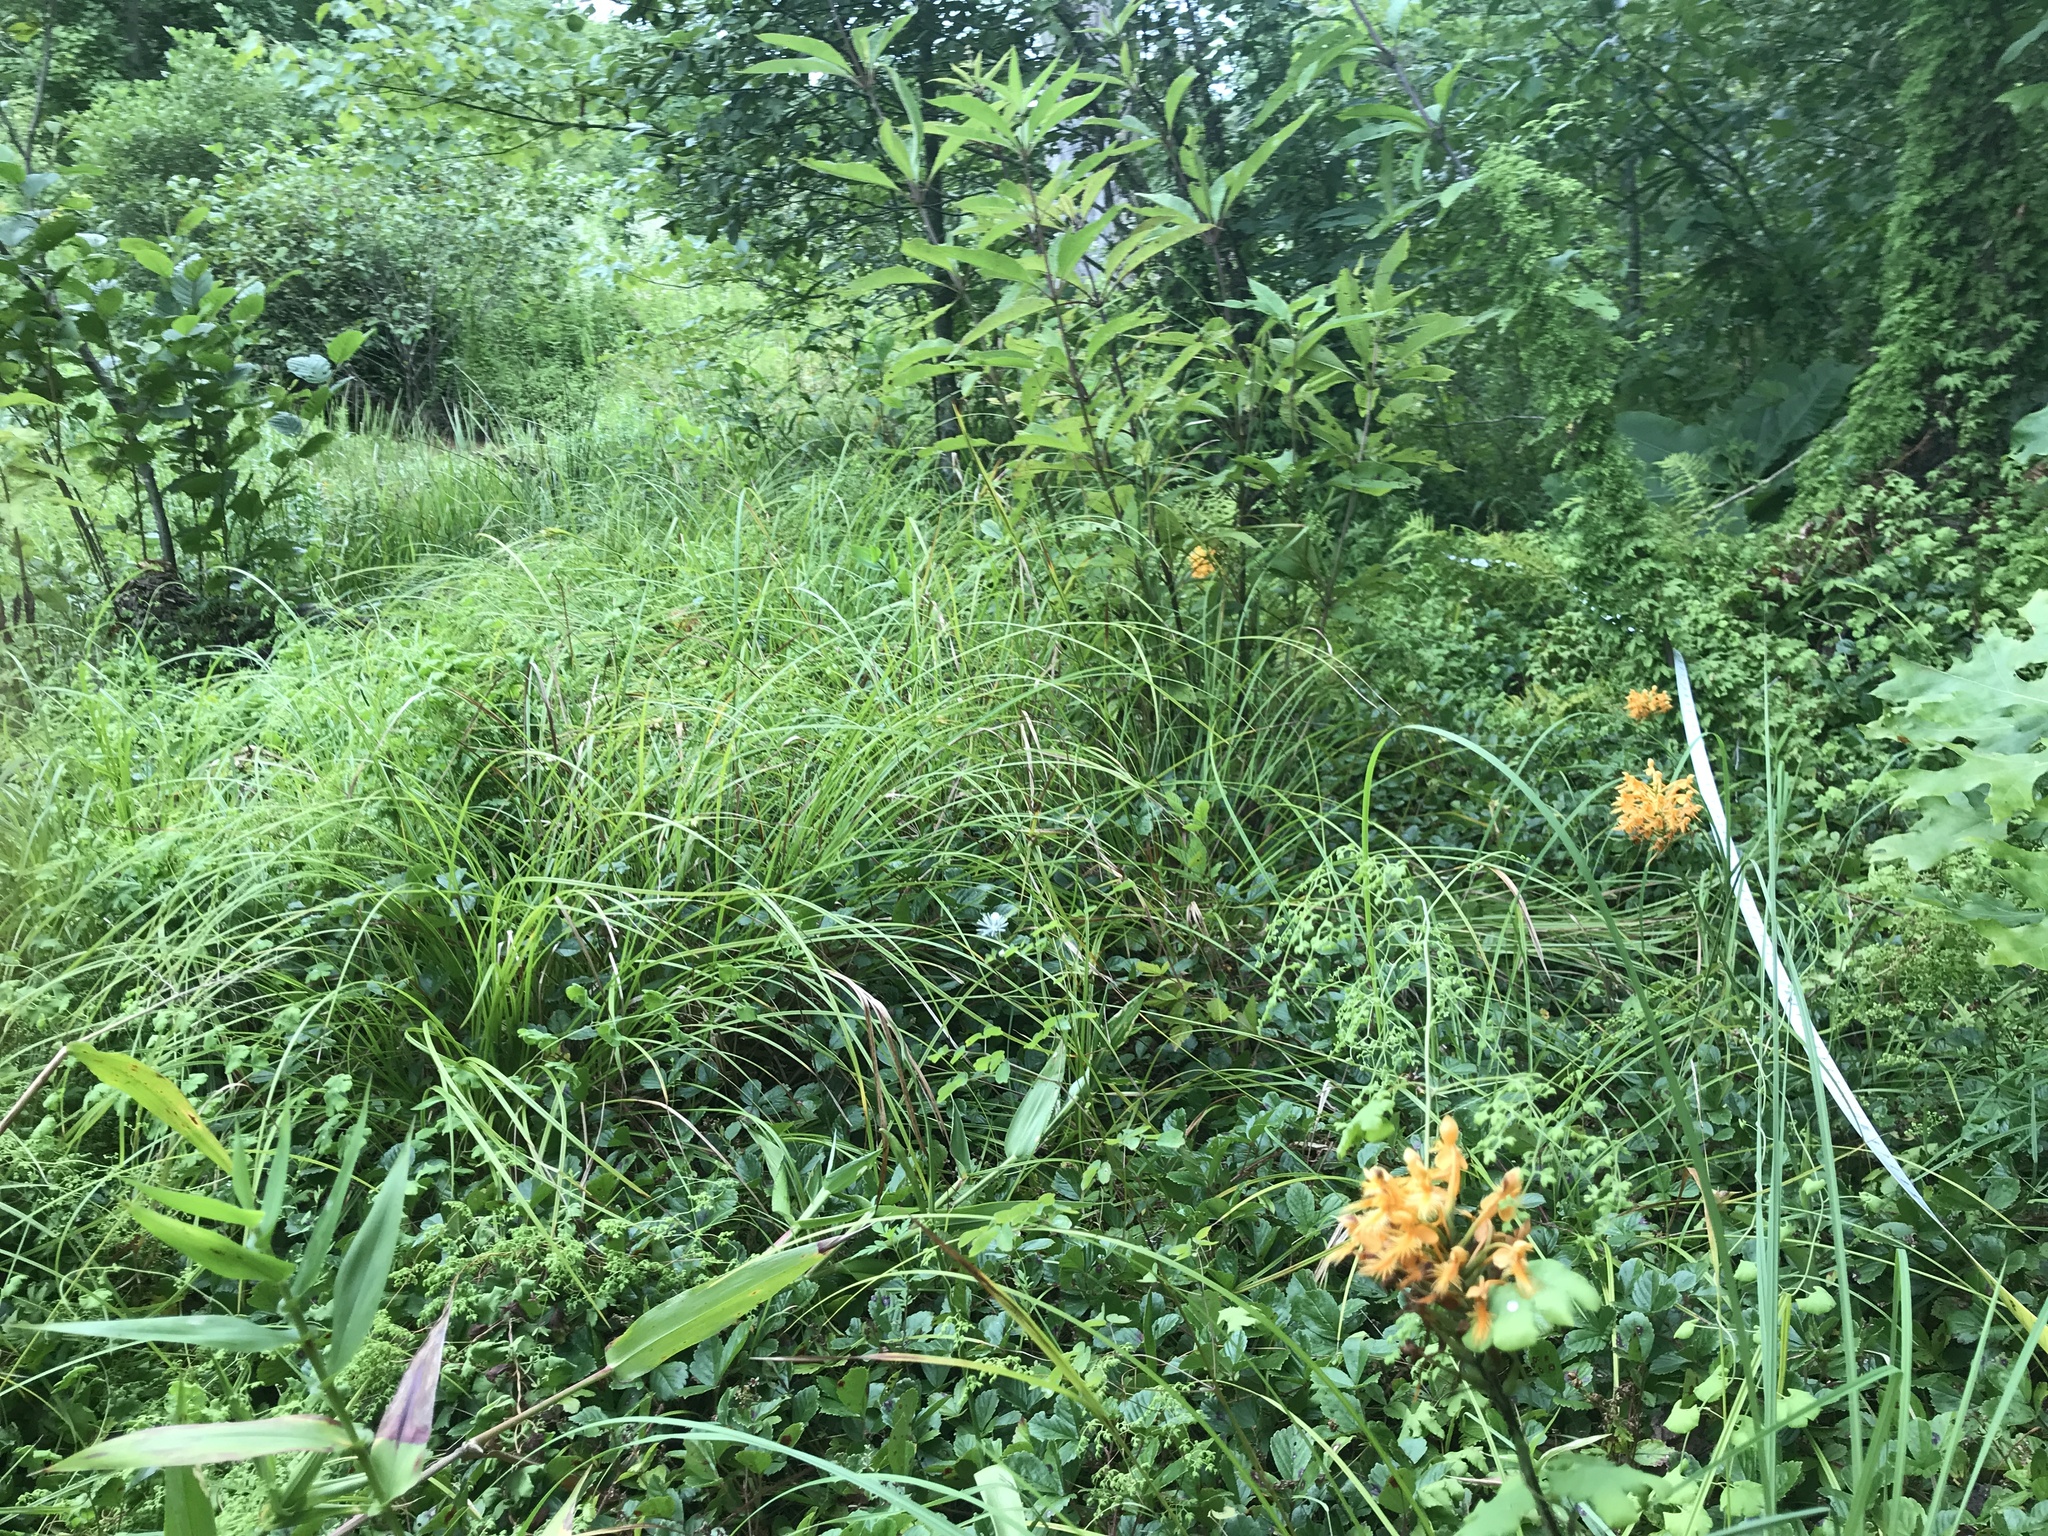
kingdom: Plantae
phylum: Tracheophyta
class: Liliopsida
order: Asparagales
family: Orchidaceae
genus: Platanthera
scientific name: Platanthera ciliaris
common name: Yellow fringed orchid
